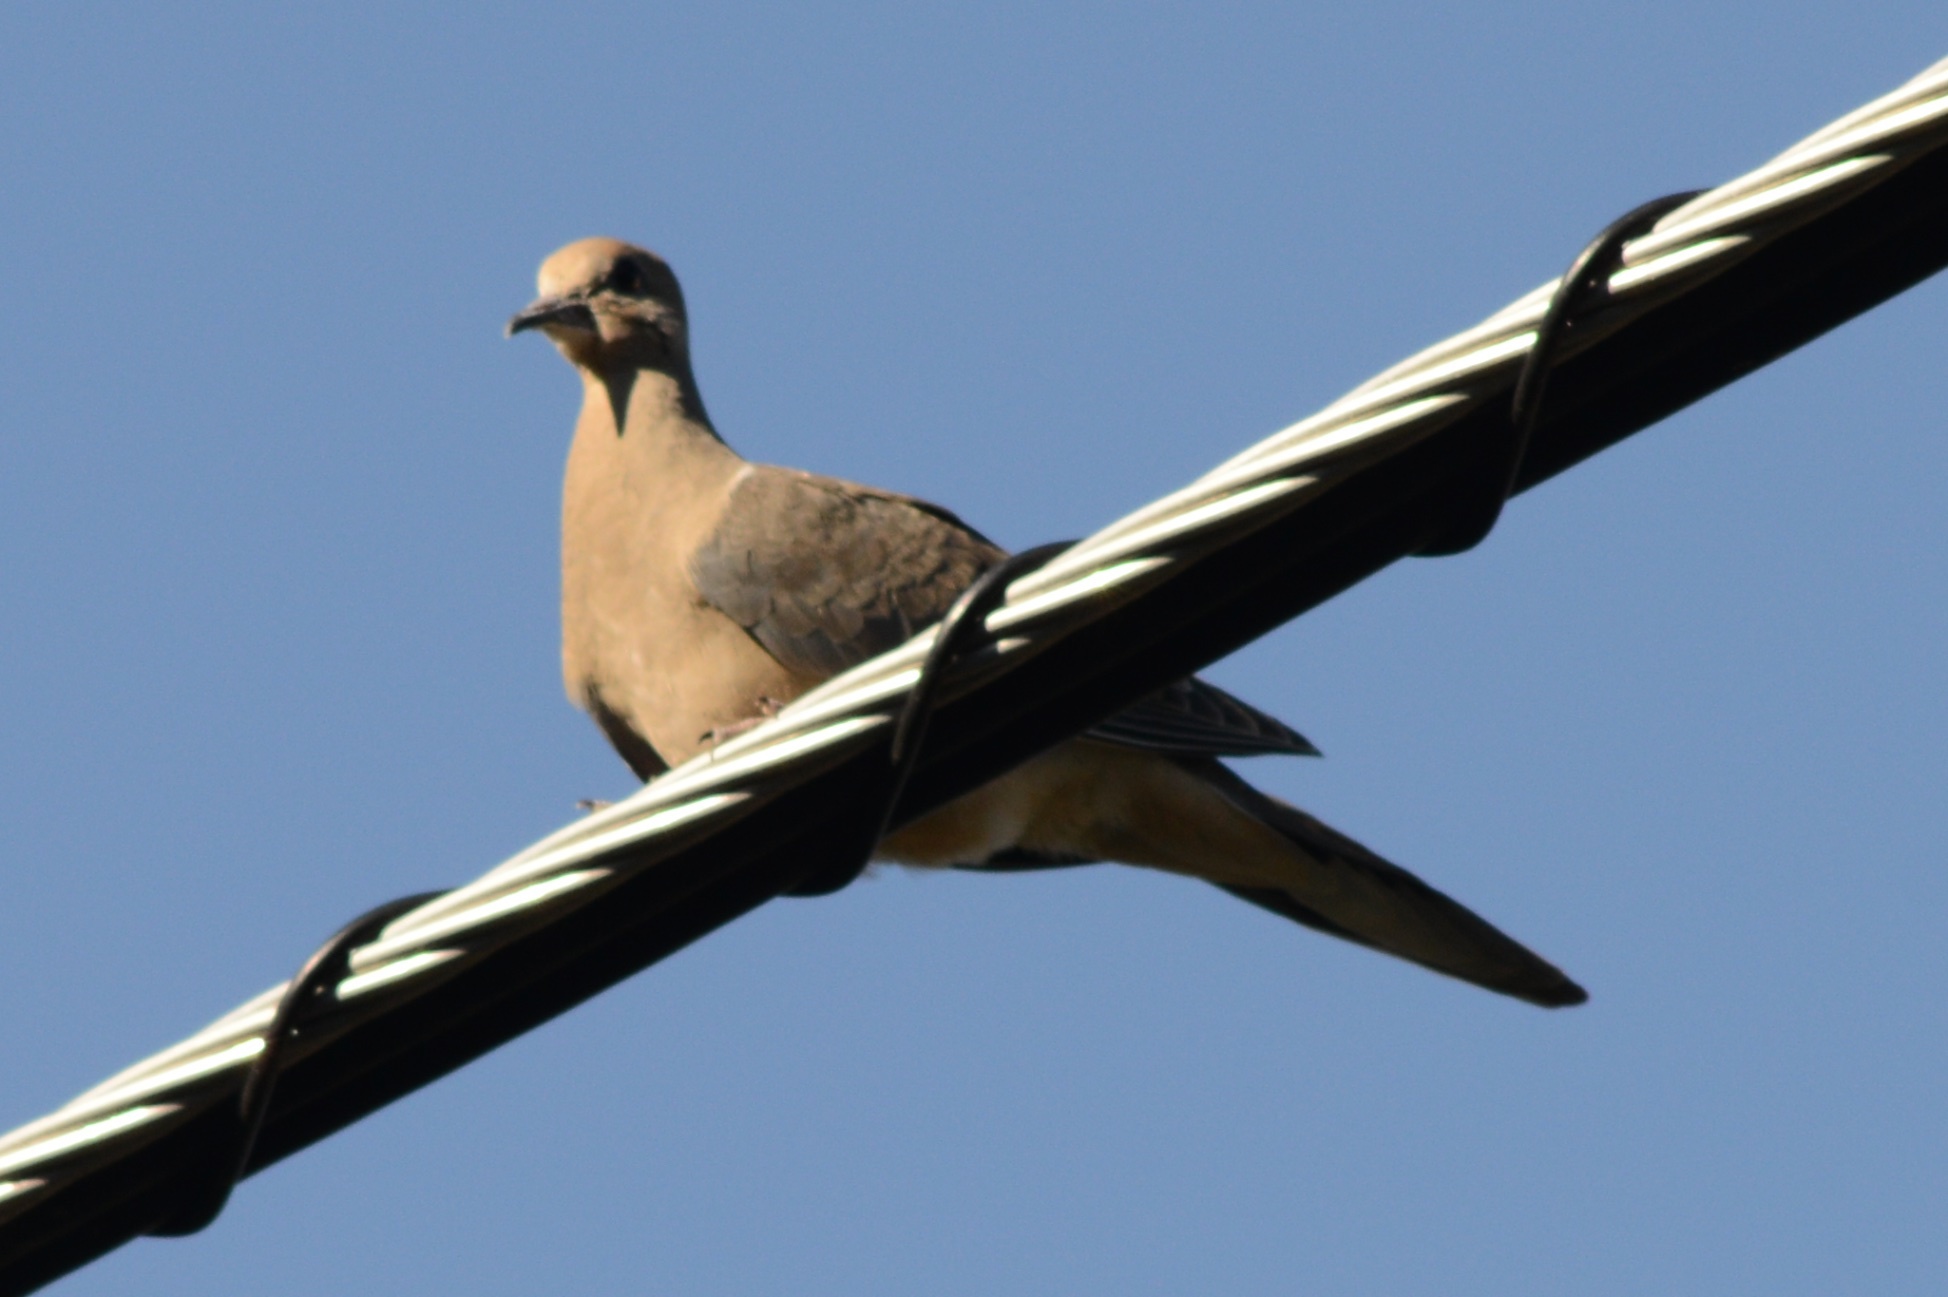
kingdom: Animalia
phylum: Chordata
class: Aves
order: Columbiformes
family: Columbidae
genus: Zenaida
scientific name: Zenaida macroura
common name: Mourning dove
